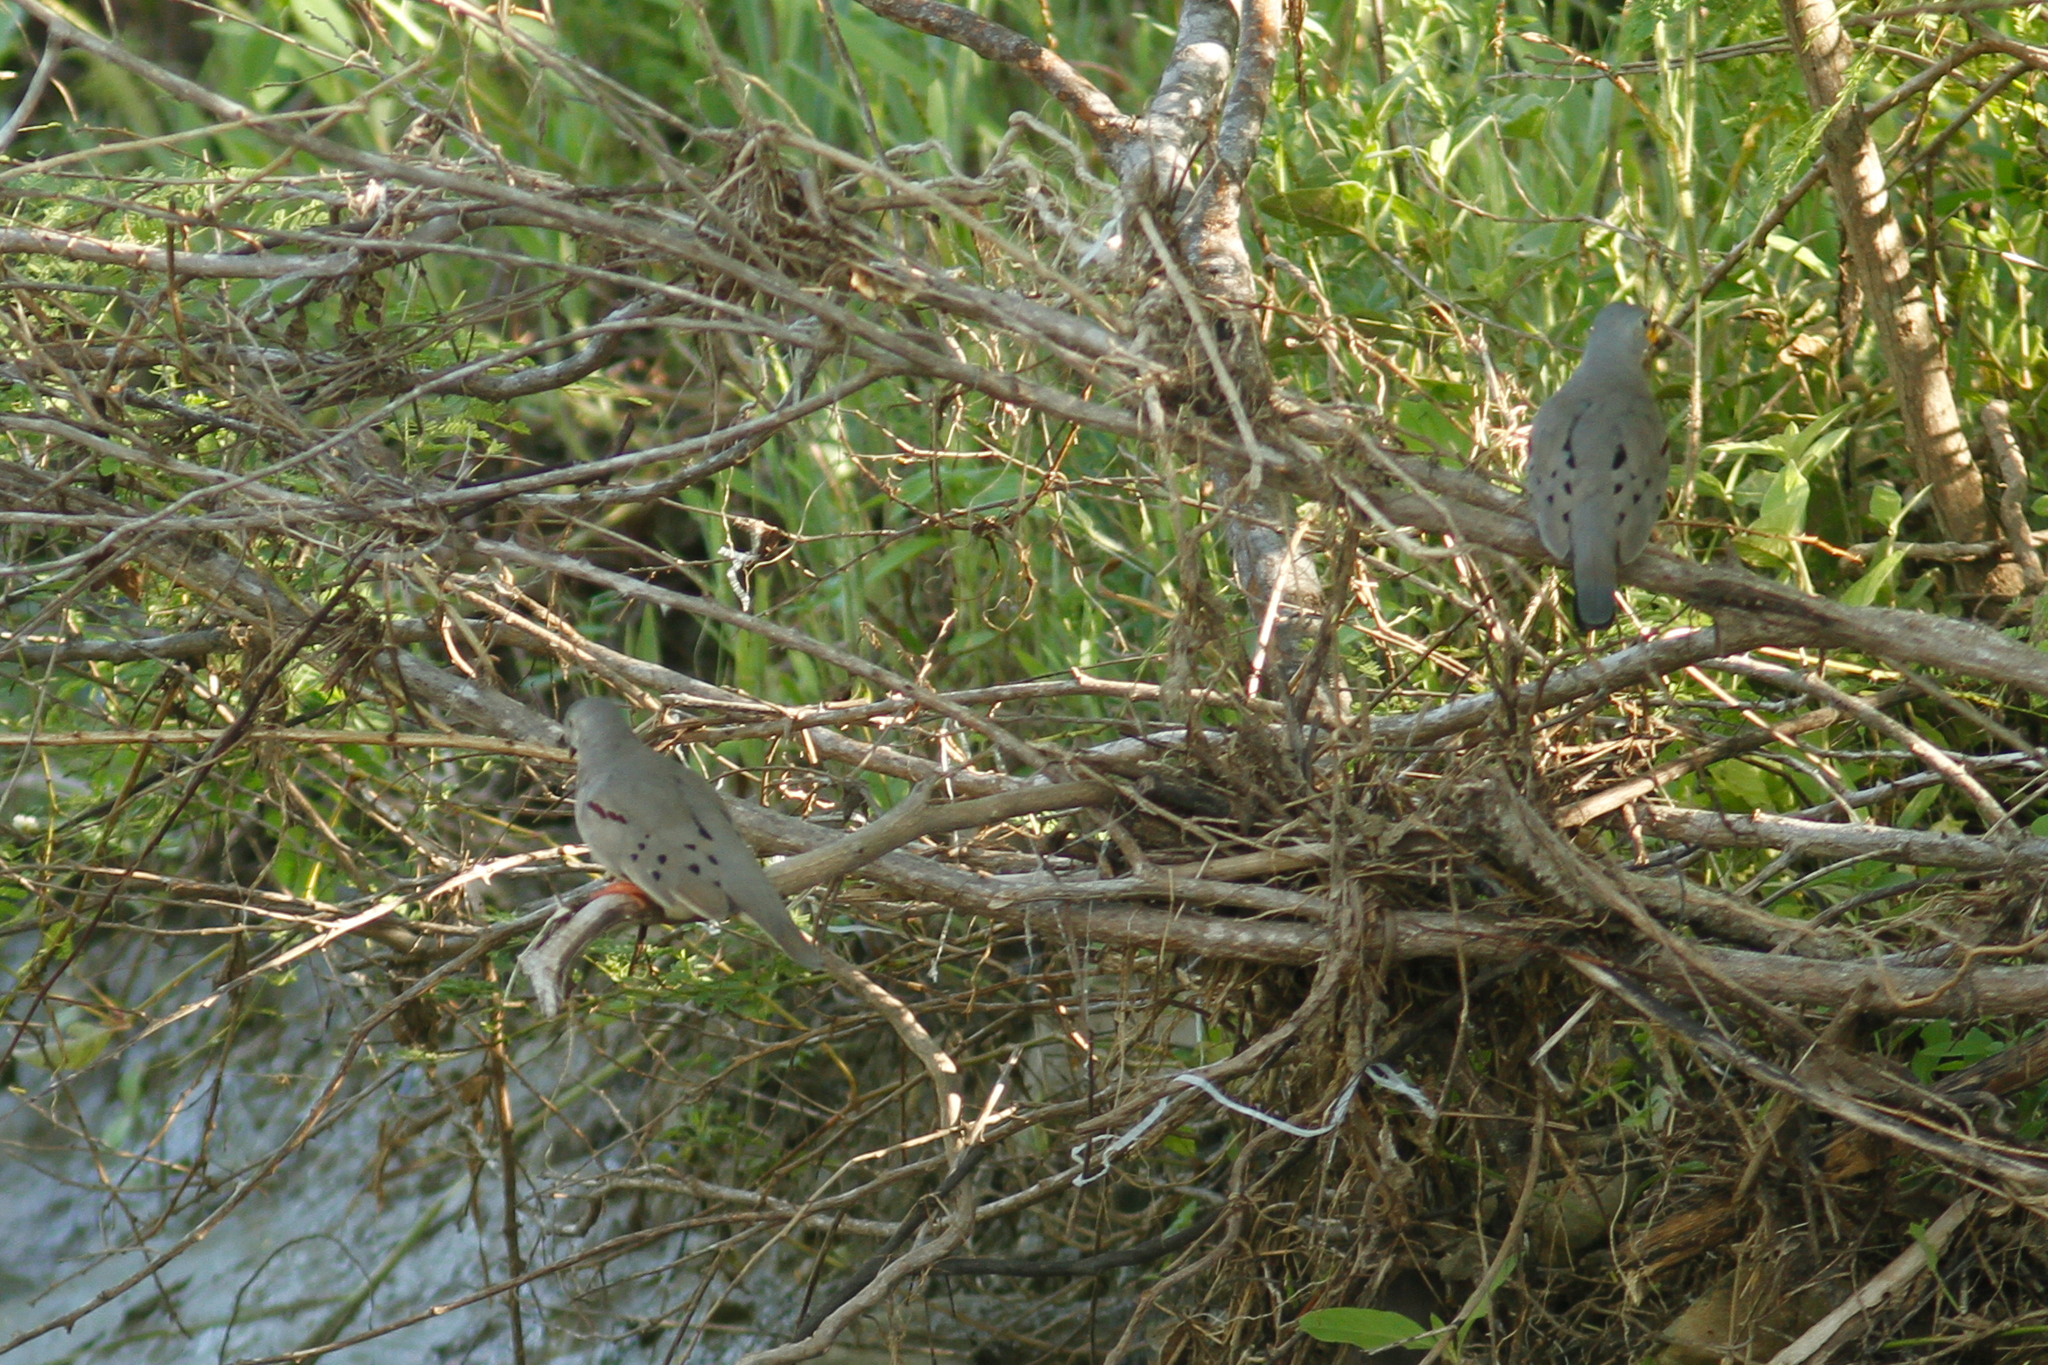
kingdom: Animalia
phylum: Chordata
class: Aves
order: Columbiformes
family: Columbidae
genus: Columbina
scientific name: Columbina cruziana
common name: Croaking ground dove
